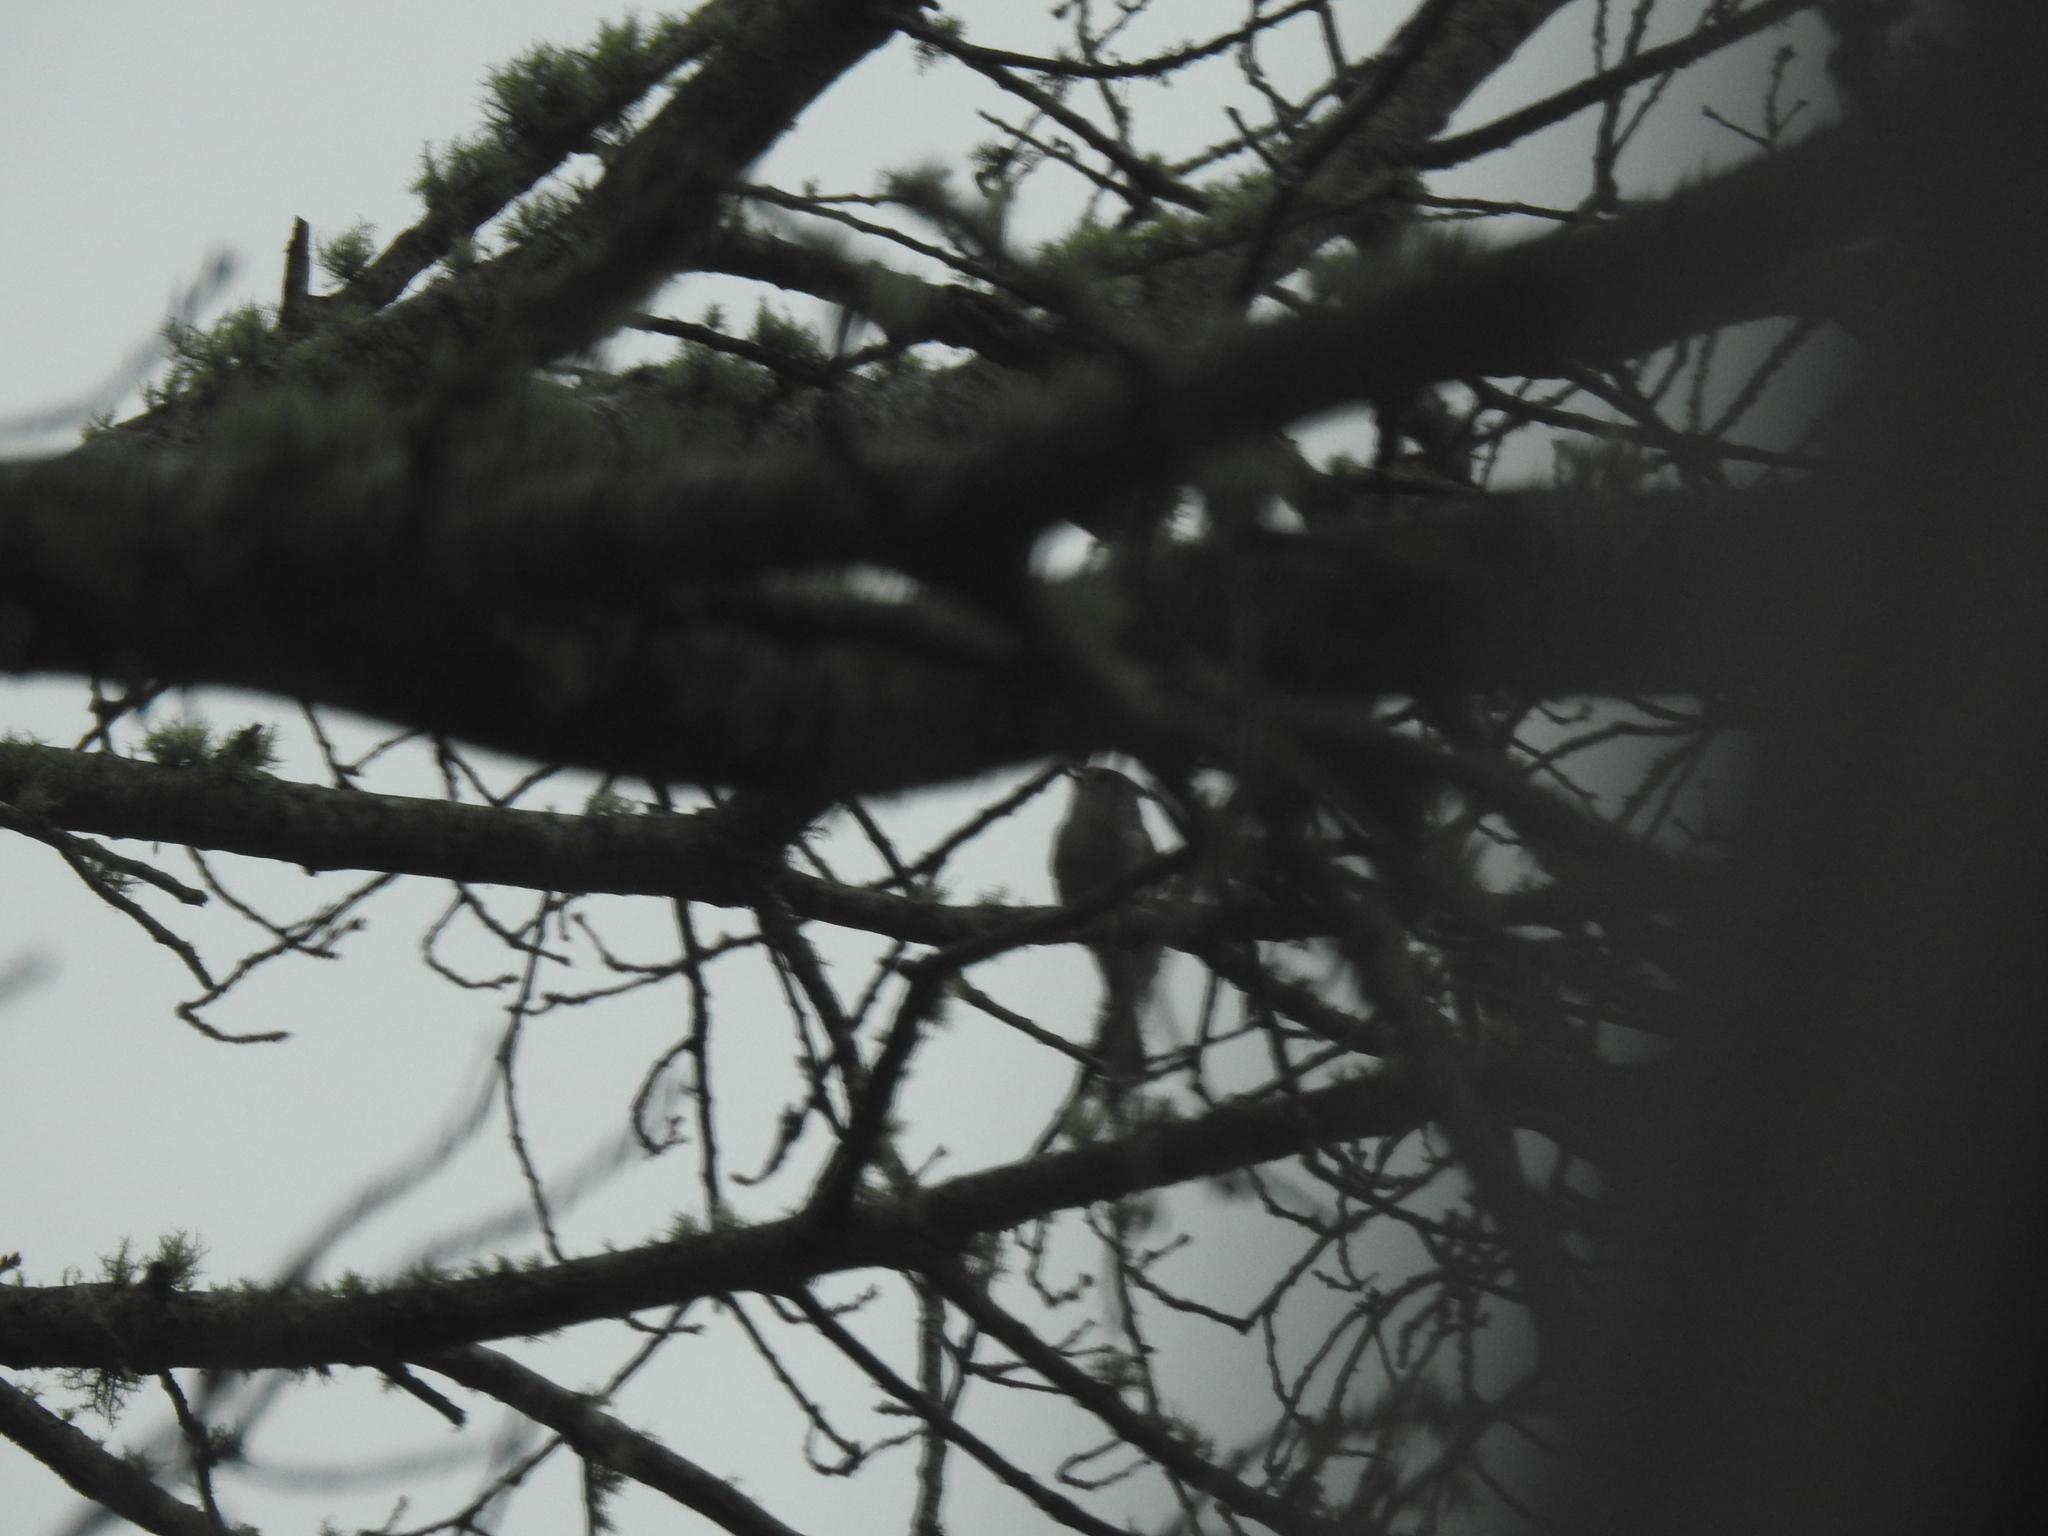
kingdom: Animalia
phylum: Chordata
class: Aves
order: Passeriformes
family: Paridae
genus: Baeolophus
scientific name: Baeolophus bicolor
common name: Tufted titmouse
